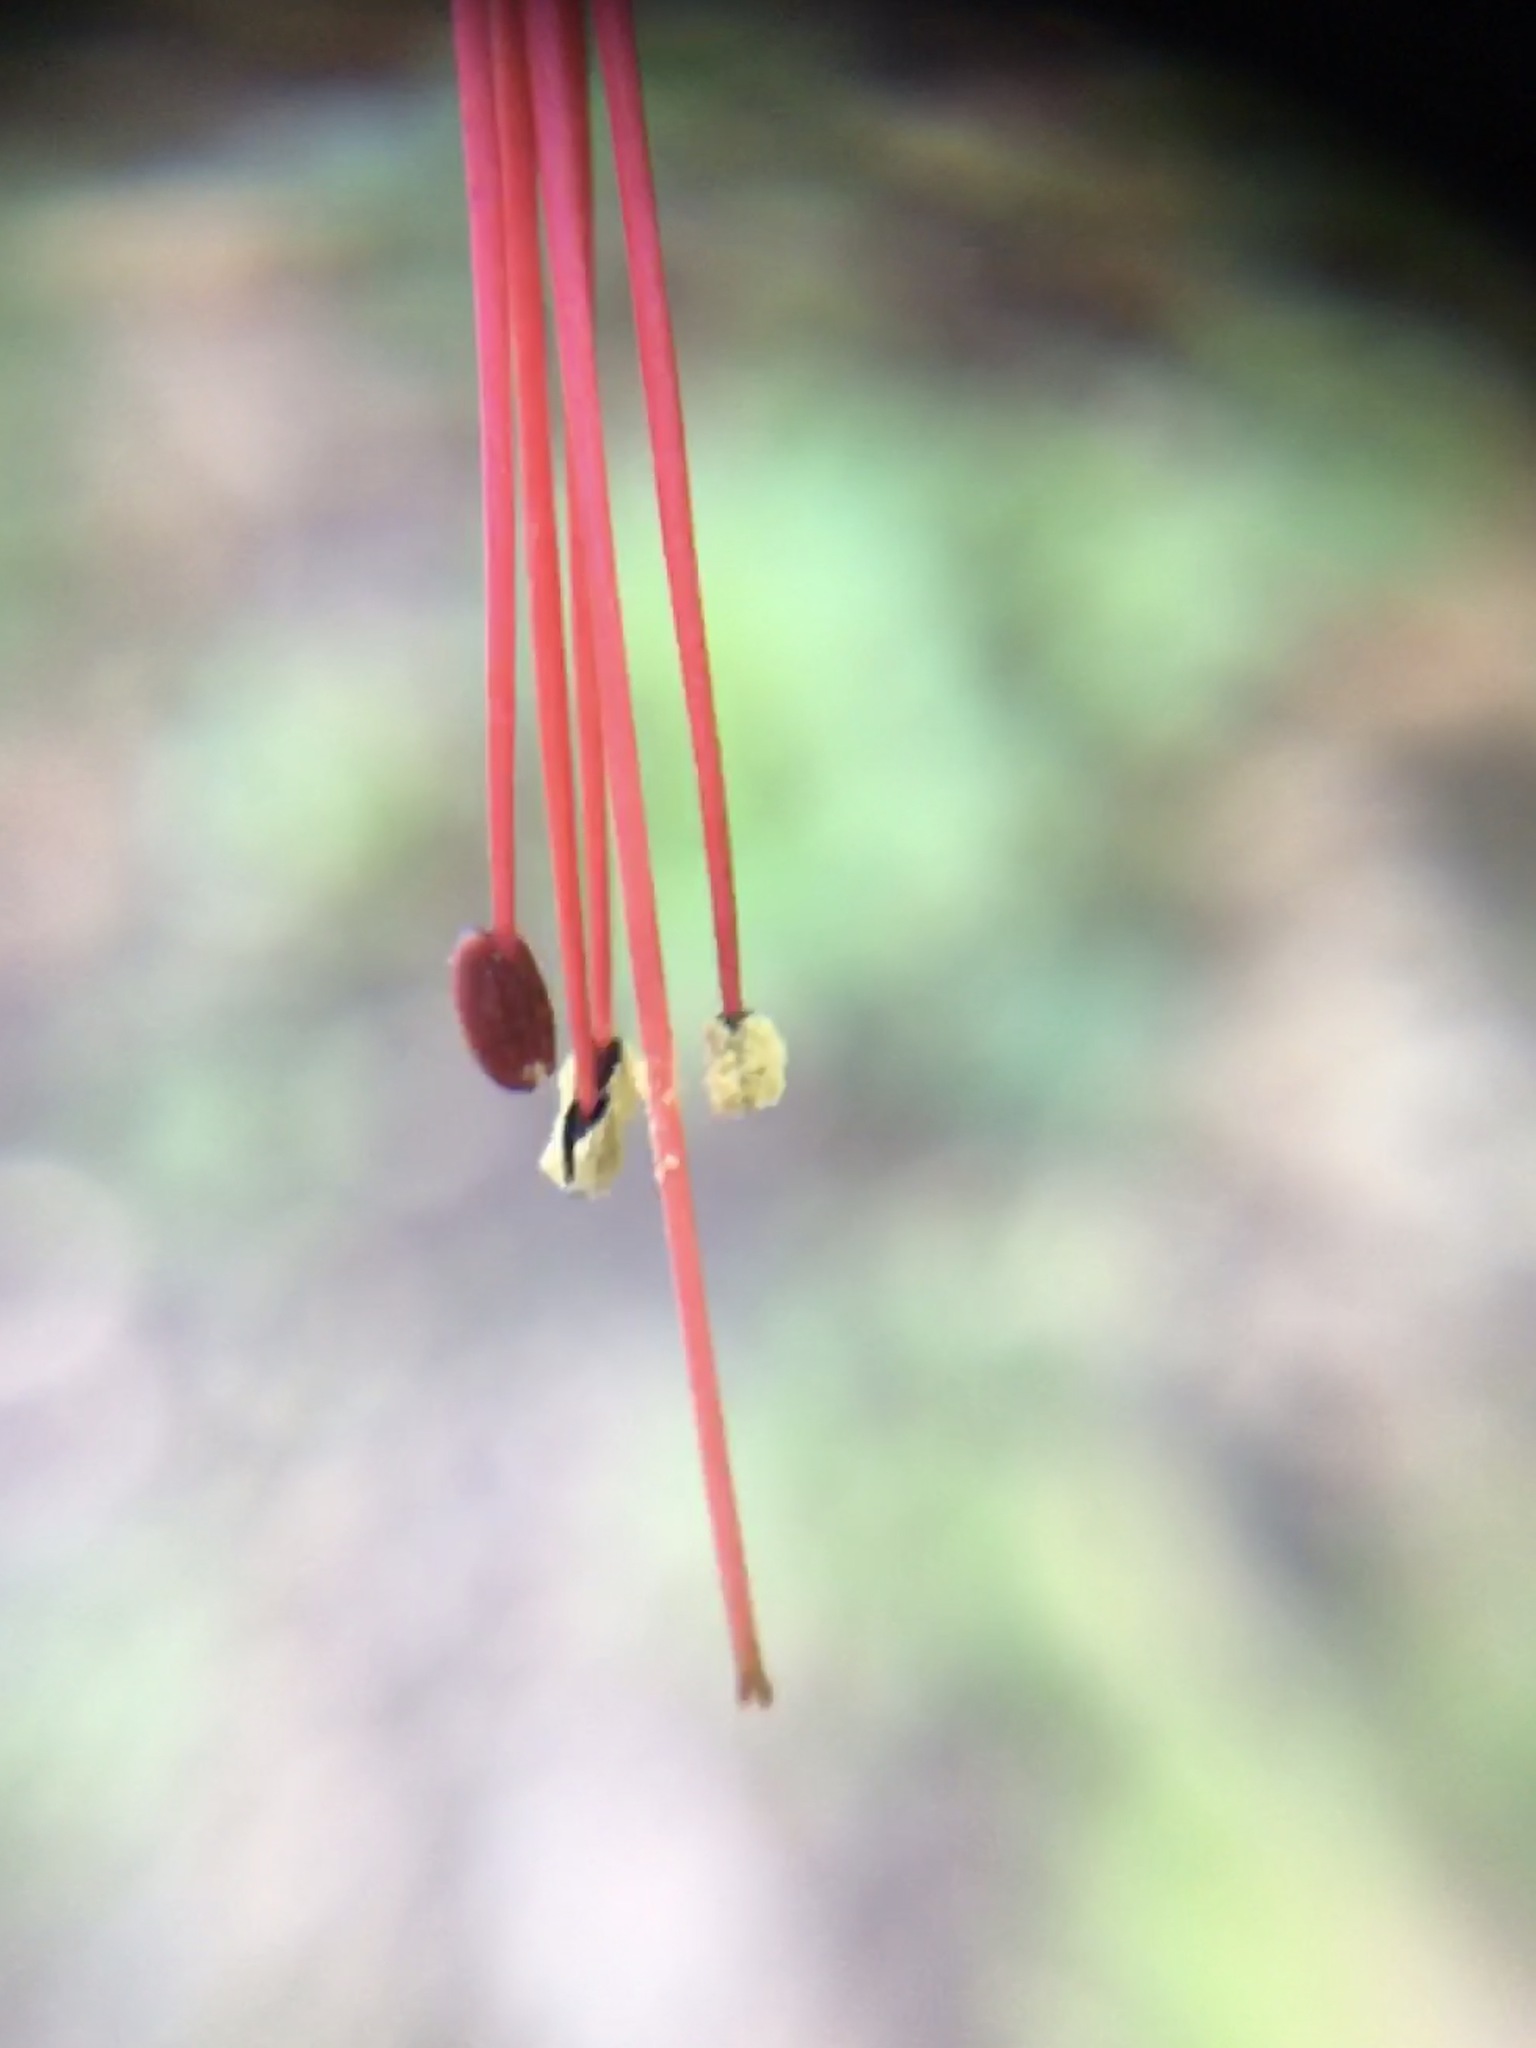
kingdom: Plantae
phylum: Tracheophyta
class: Magnoliopsida
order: Saxifragales
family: Grossulariaceae
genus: Ribes
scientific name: Ribes speciosum
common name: Fuchsia-flower gooseberry
